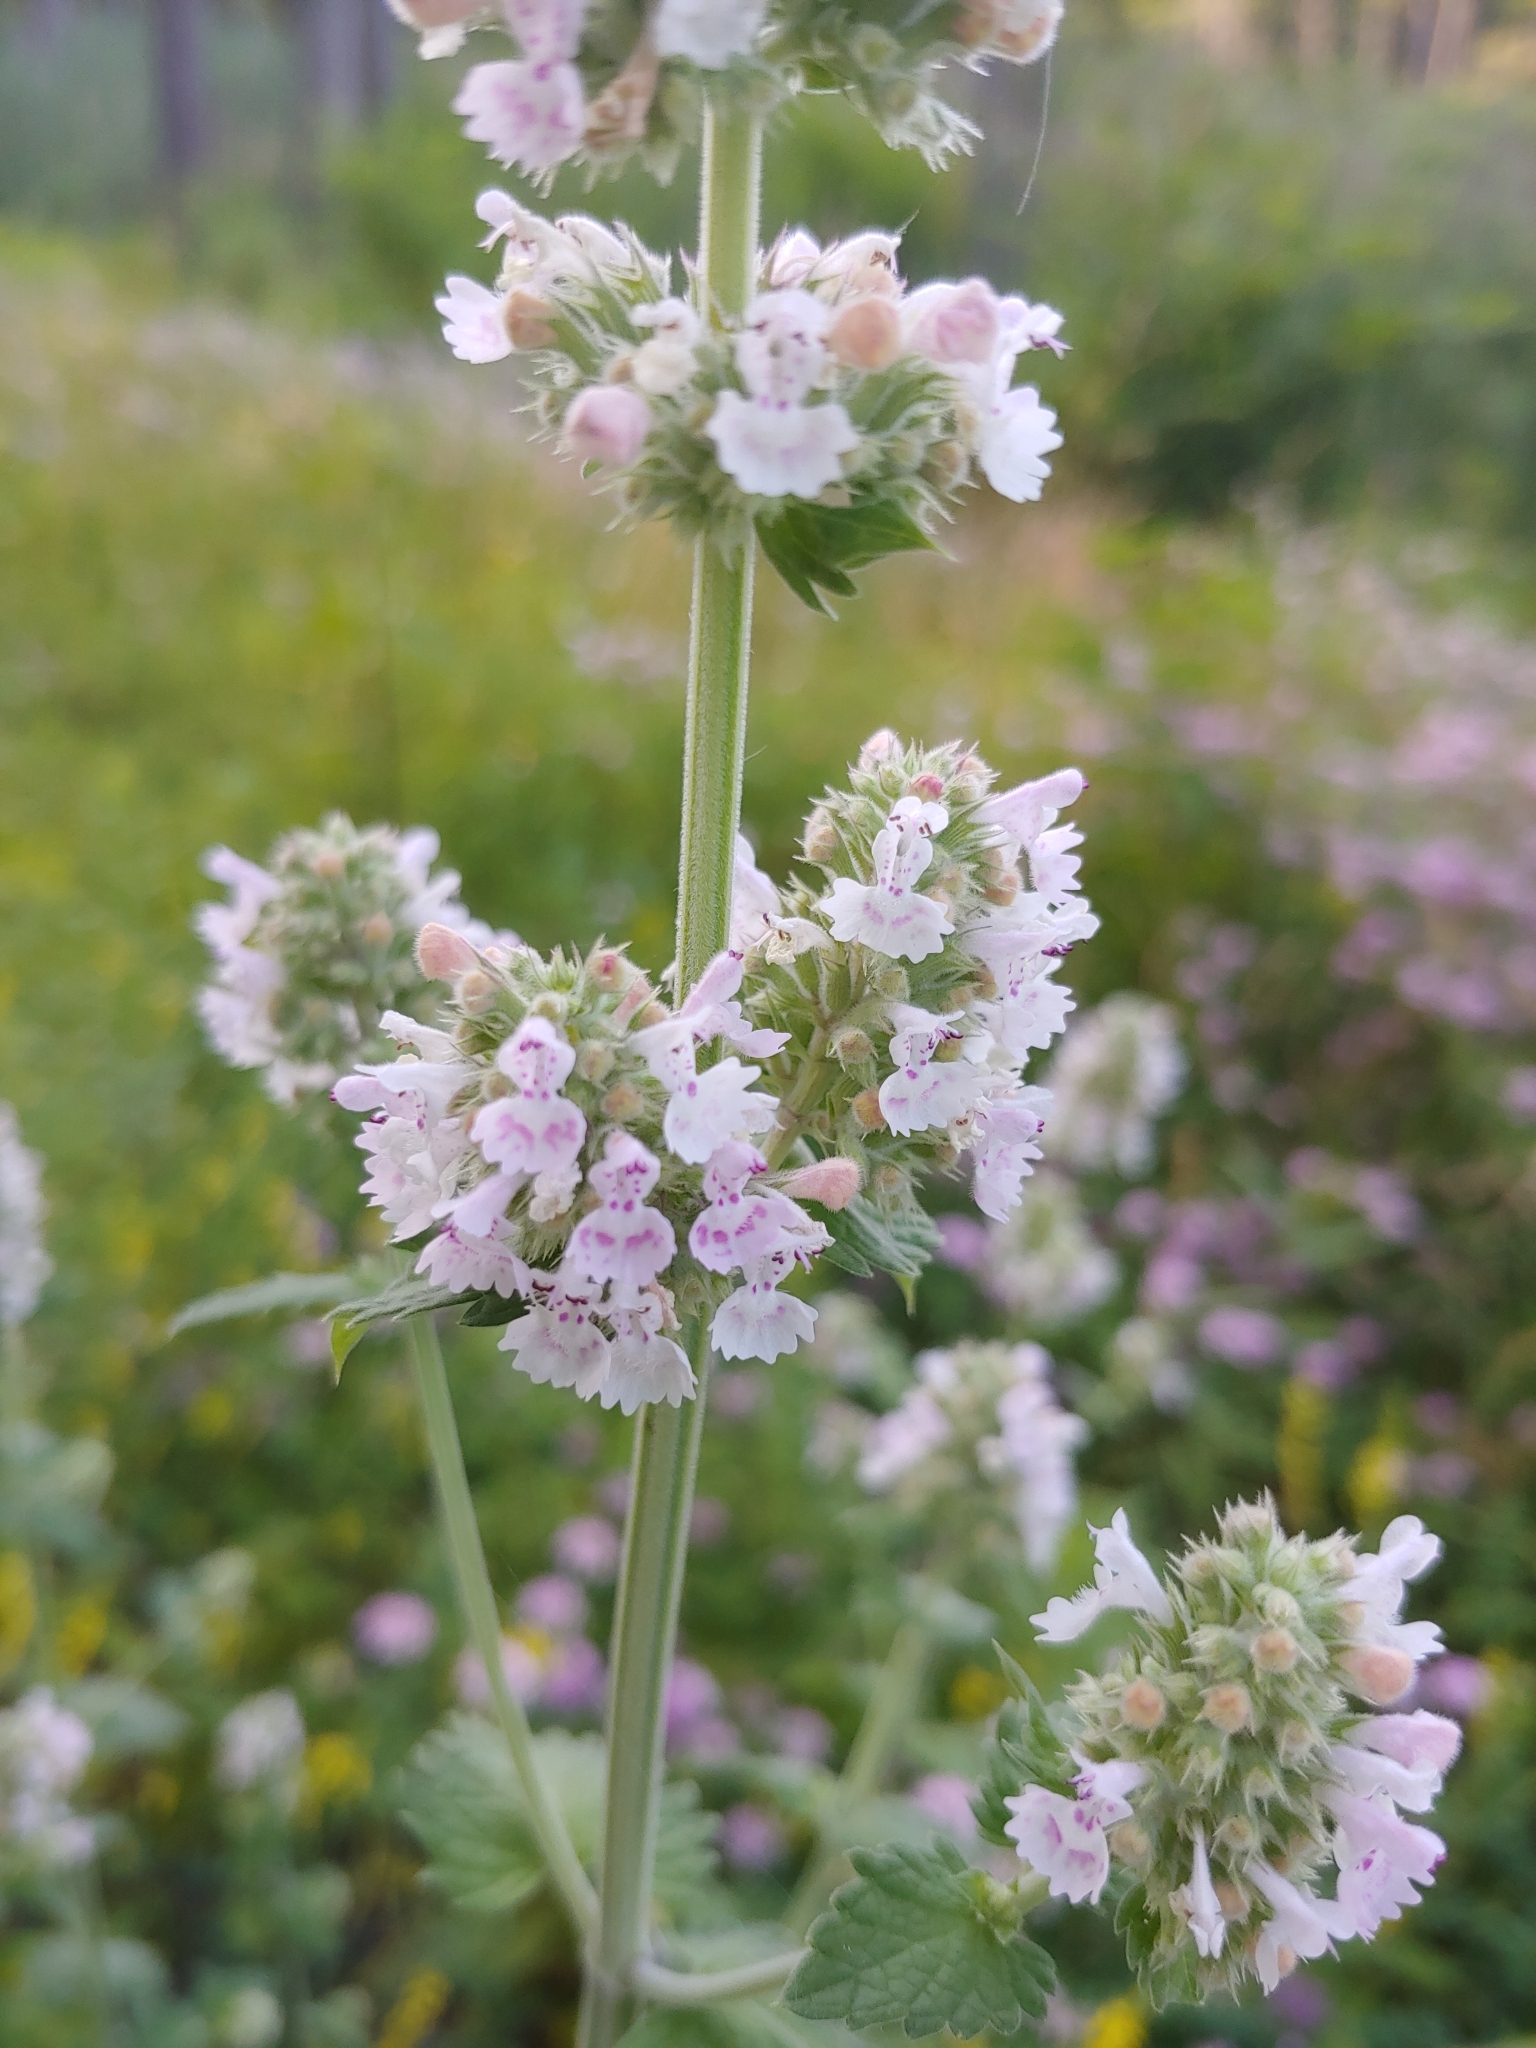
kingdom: Plantae
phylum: Tracheophyta
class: Magnoliopsida
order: Lamiales
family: Lamiaceae
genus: Nepeta
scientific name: Nepeta cataria
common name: Catnip
